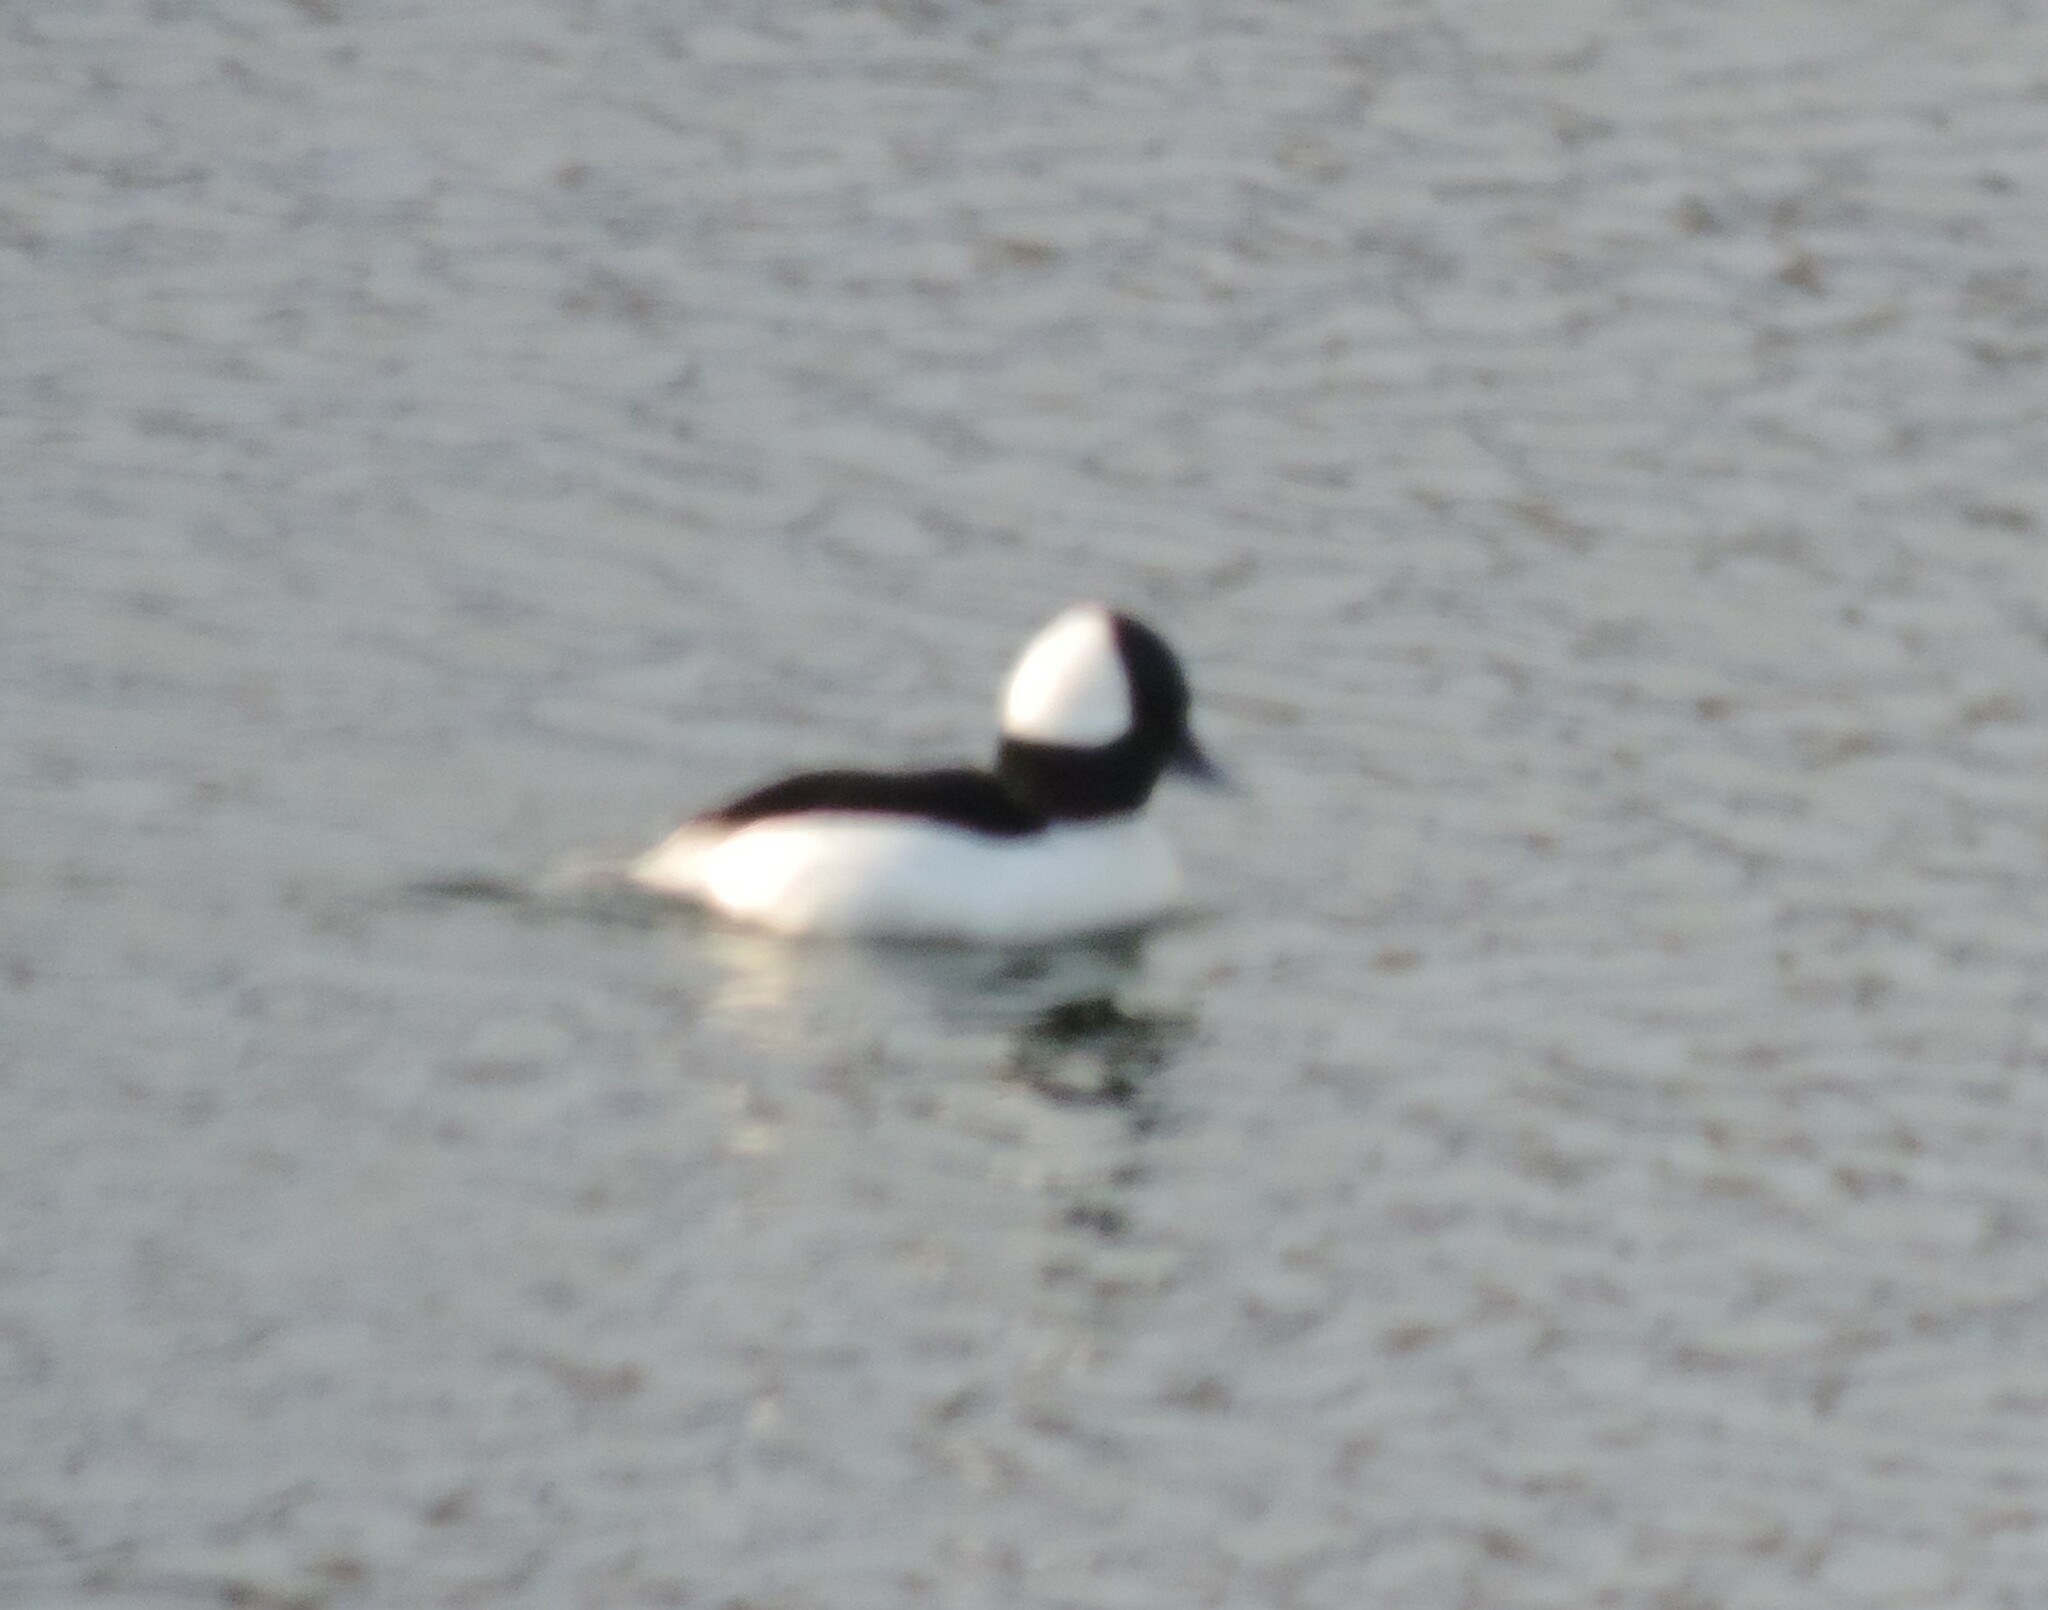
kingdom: Animalia
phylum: Chordata
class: Aves
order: Anseriformes
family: Anatidae
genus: Bucephala
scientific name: Bucephala albeola
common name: Bufflehead
